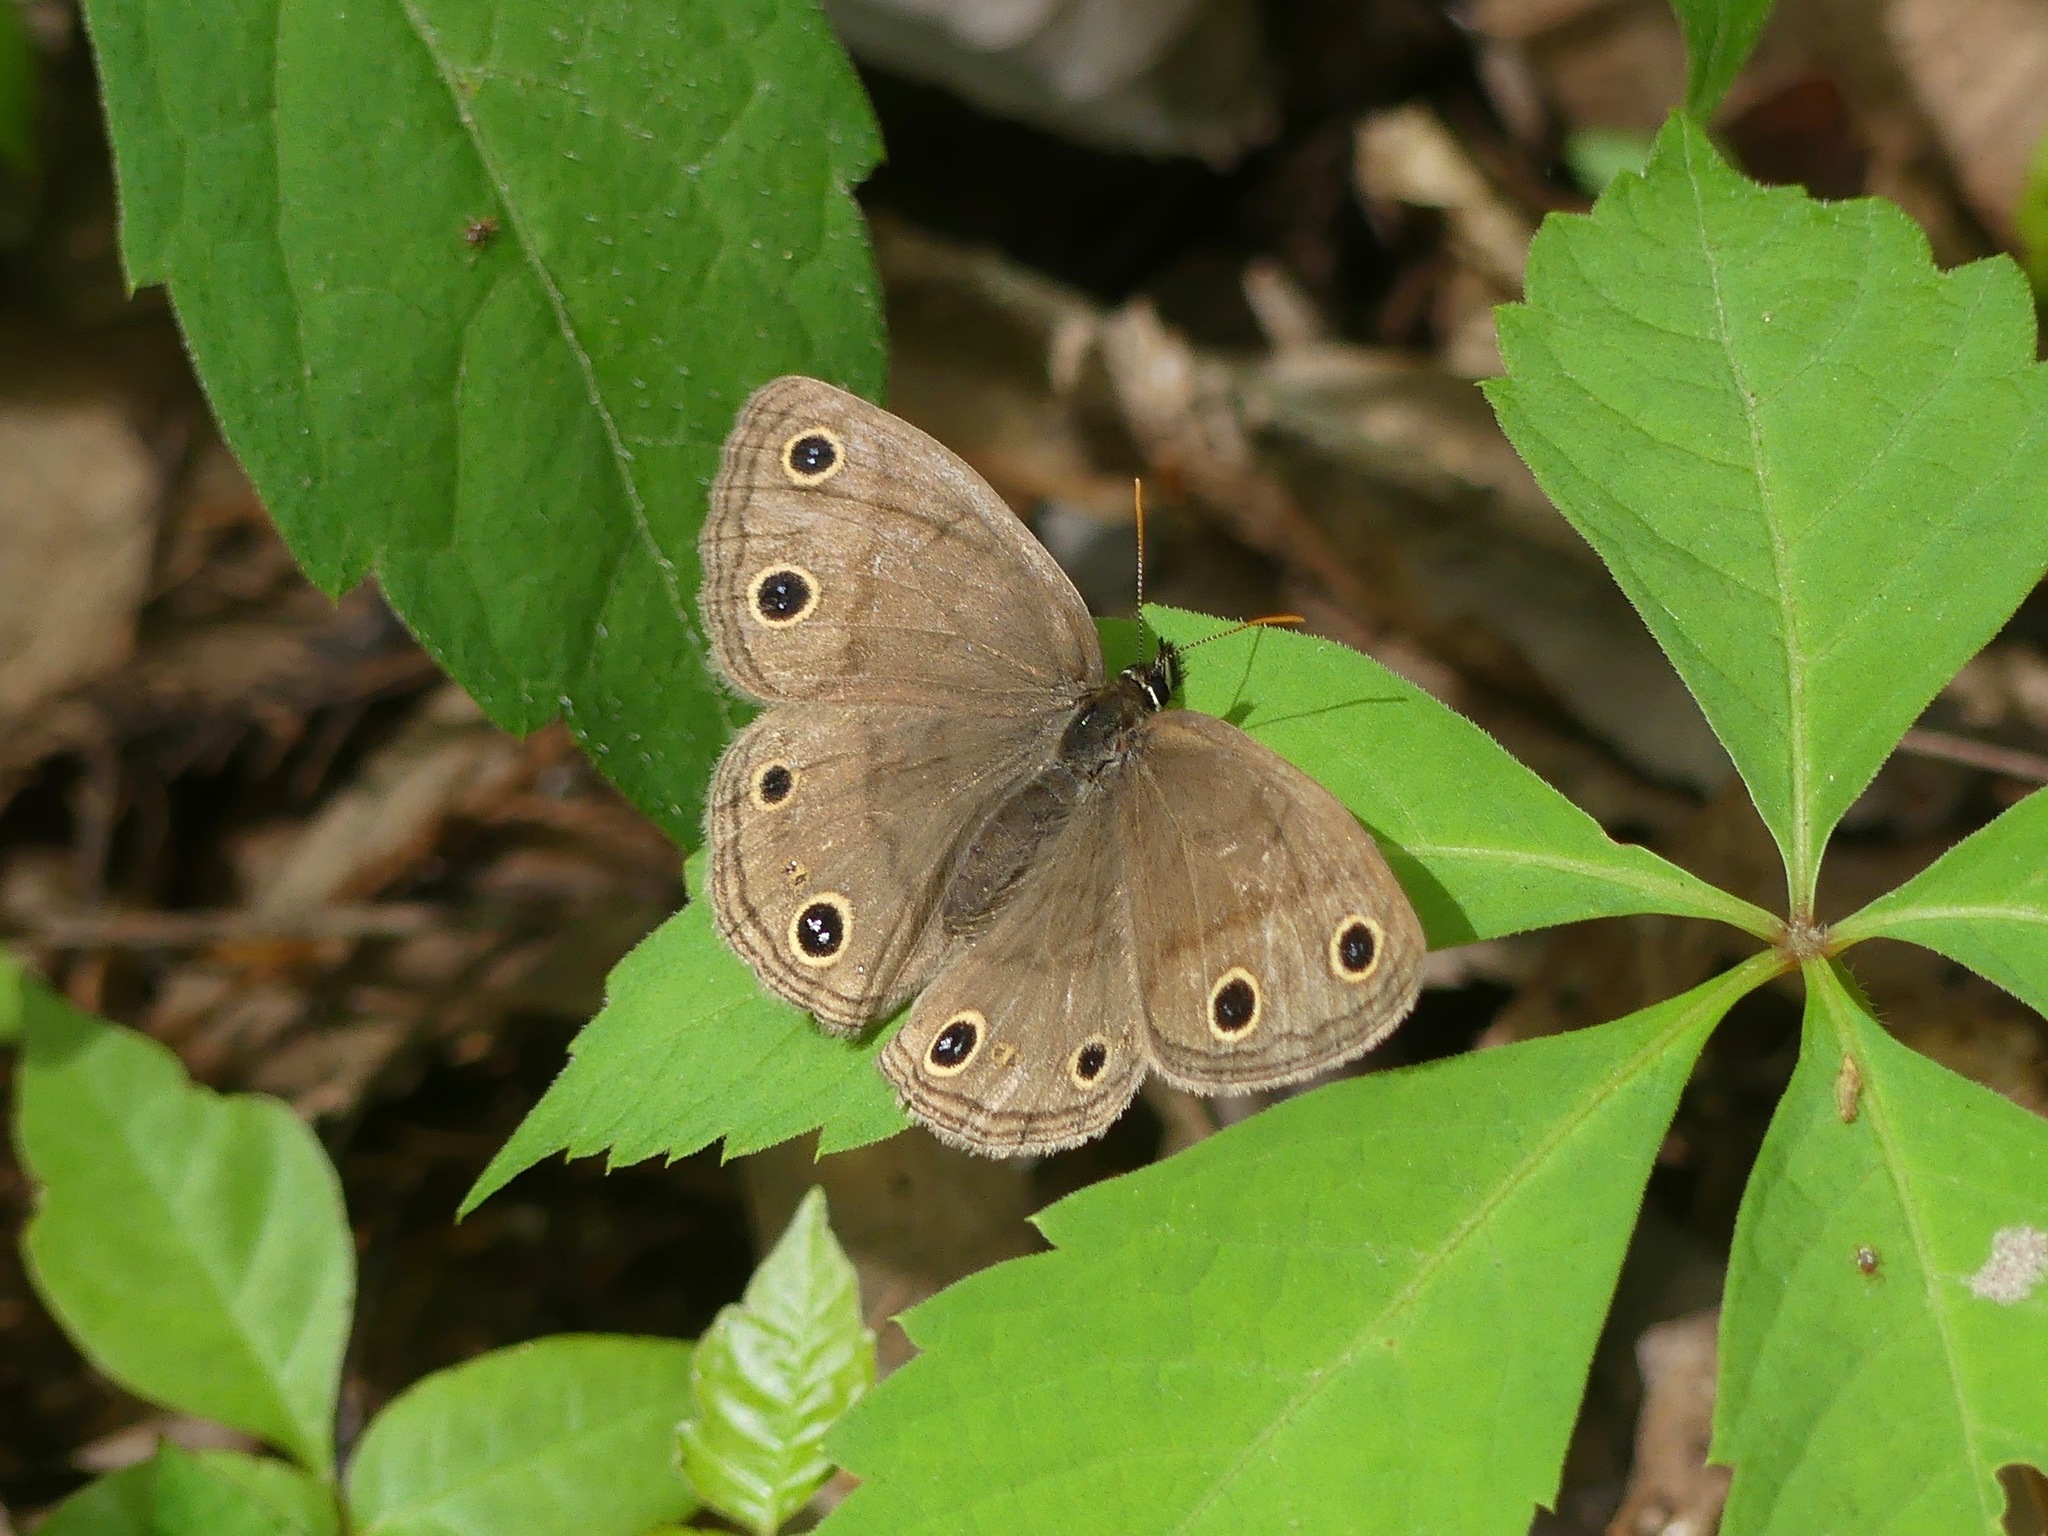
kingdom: Animalia
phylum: Arthropoda
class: Insecta
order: Lepidoptera
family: Nymphalidae
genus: Euptychia
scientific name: Euptychia cymela
